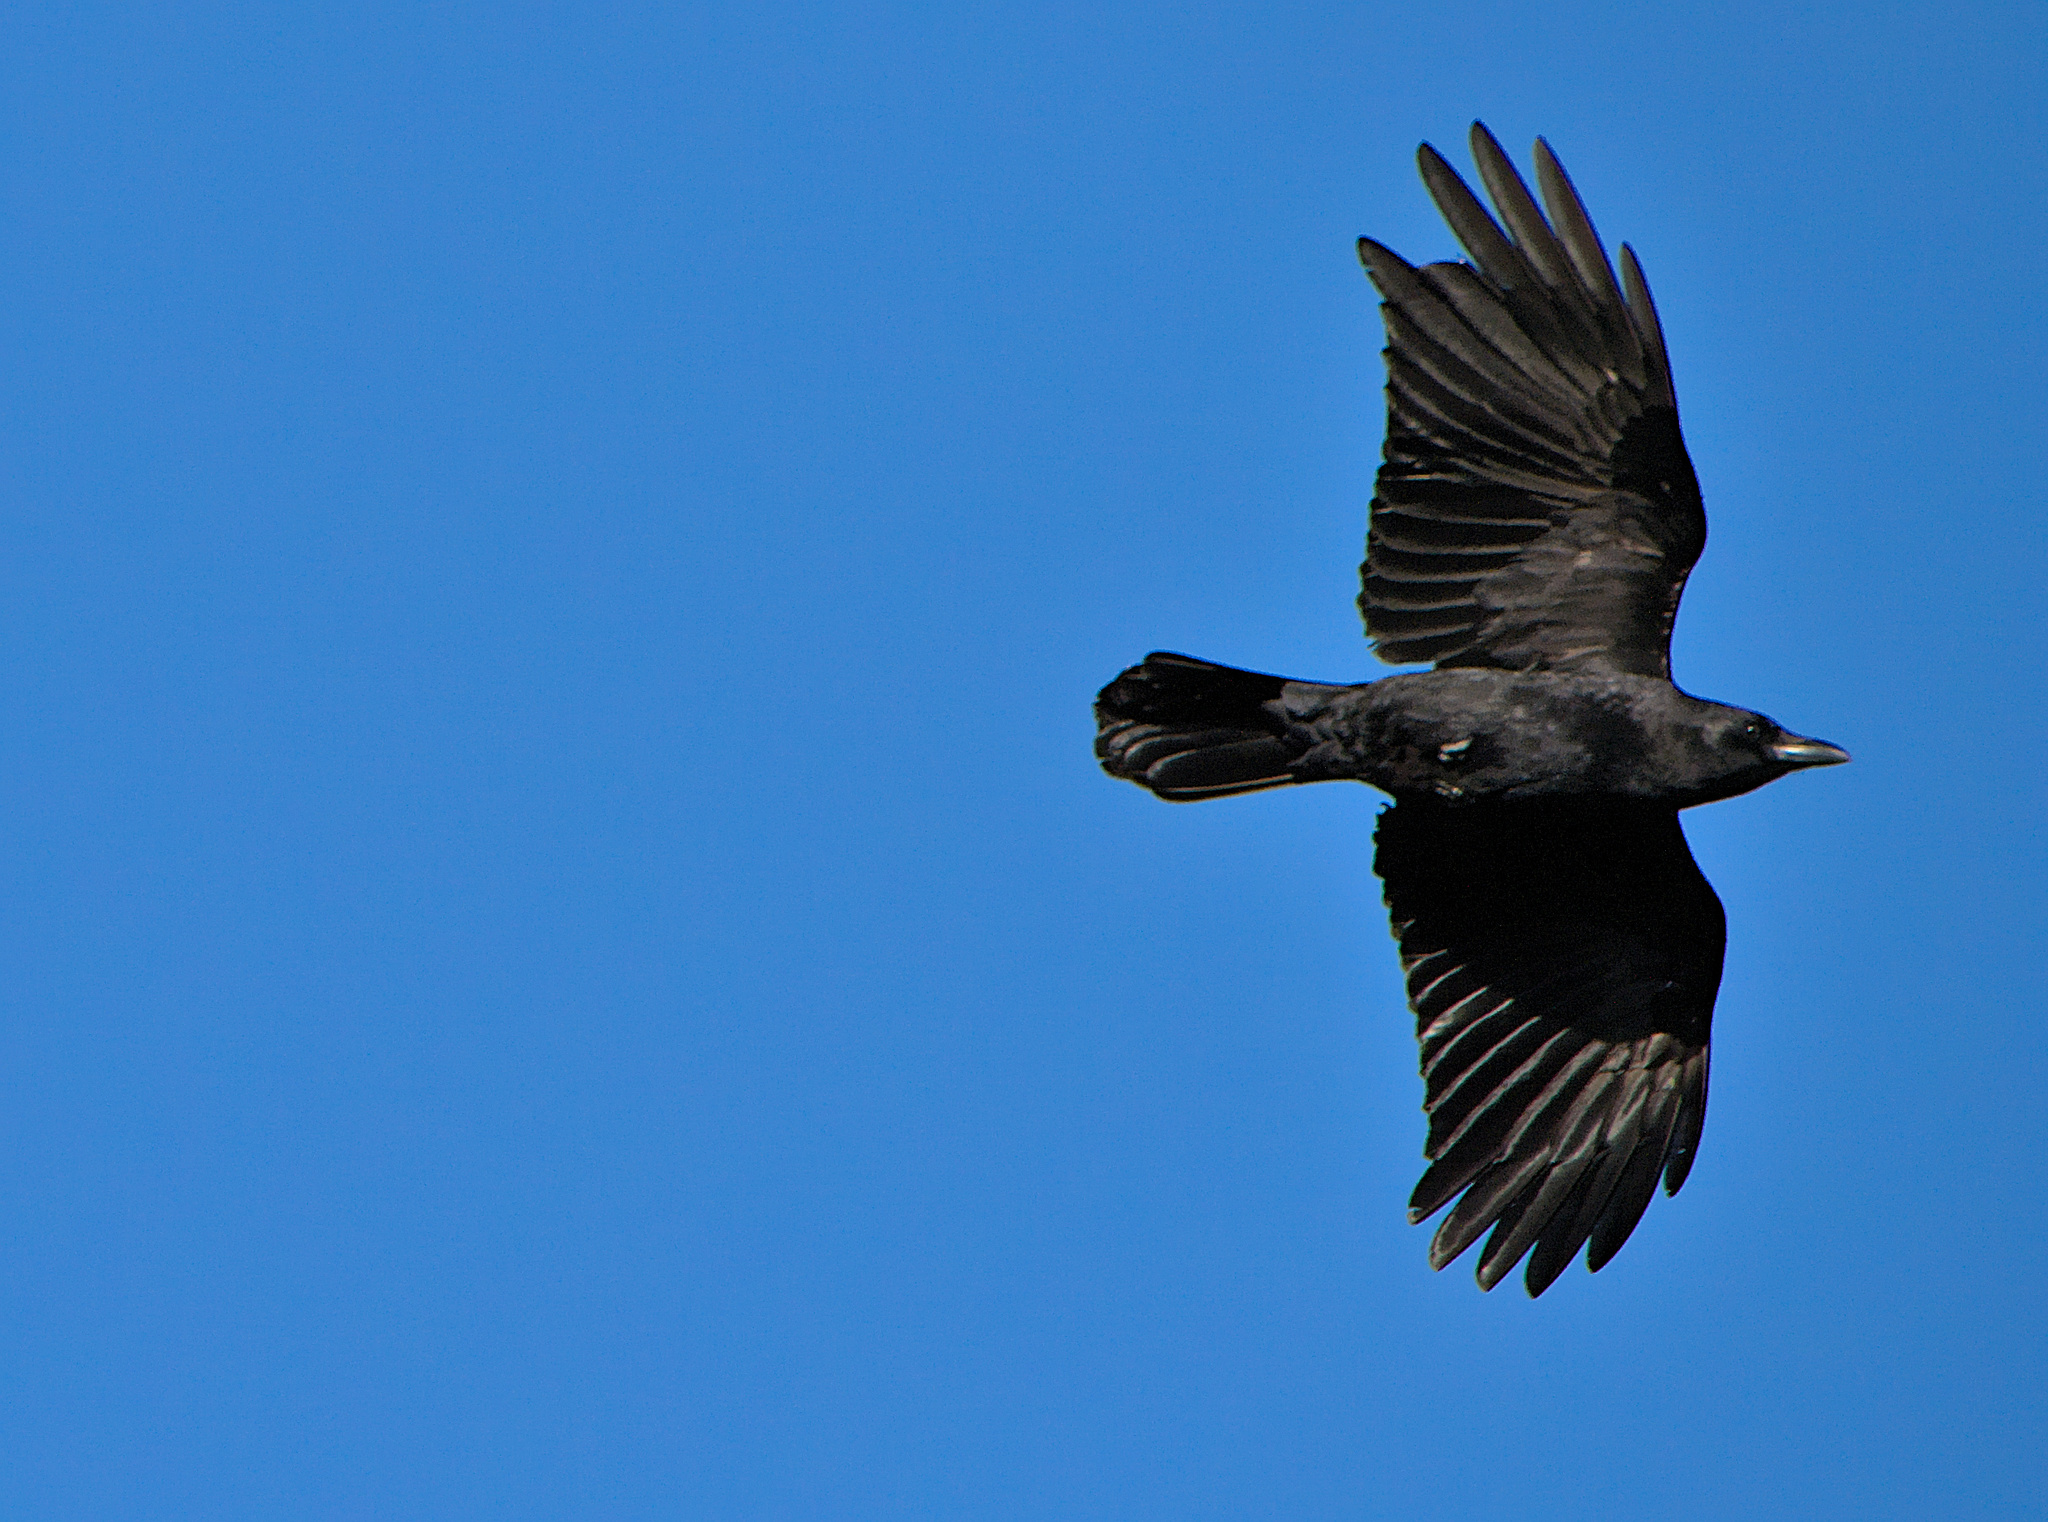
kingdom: Animalia
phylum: Chordata
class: Aves
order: Passeriformes
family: Corvidae
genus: Corvus
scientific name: Corvus brachyrhynchos
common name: American crow
